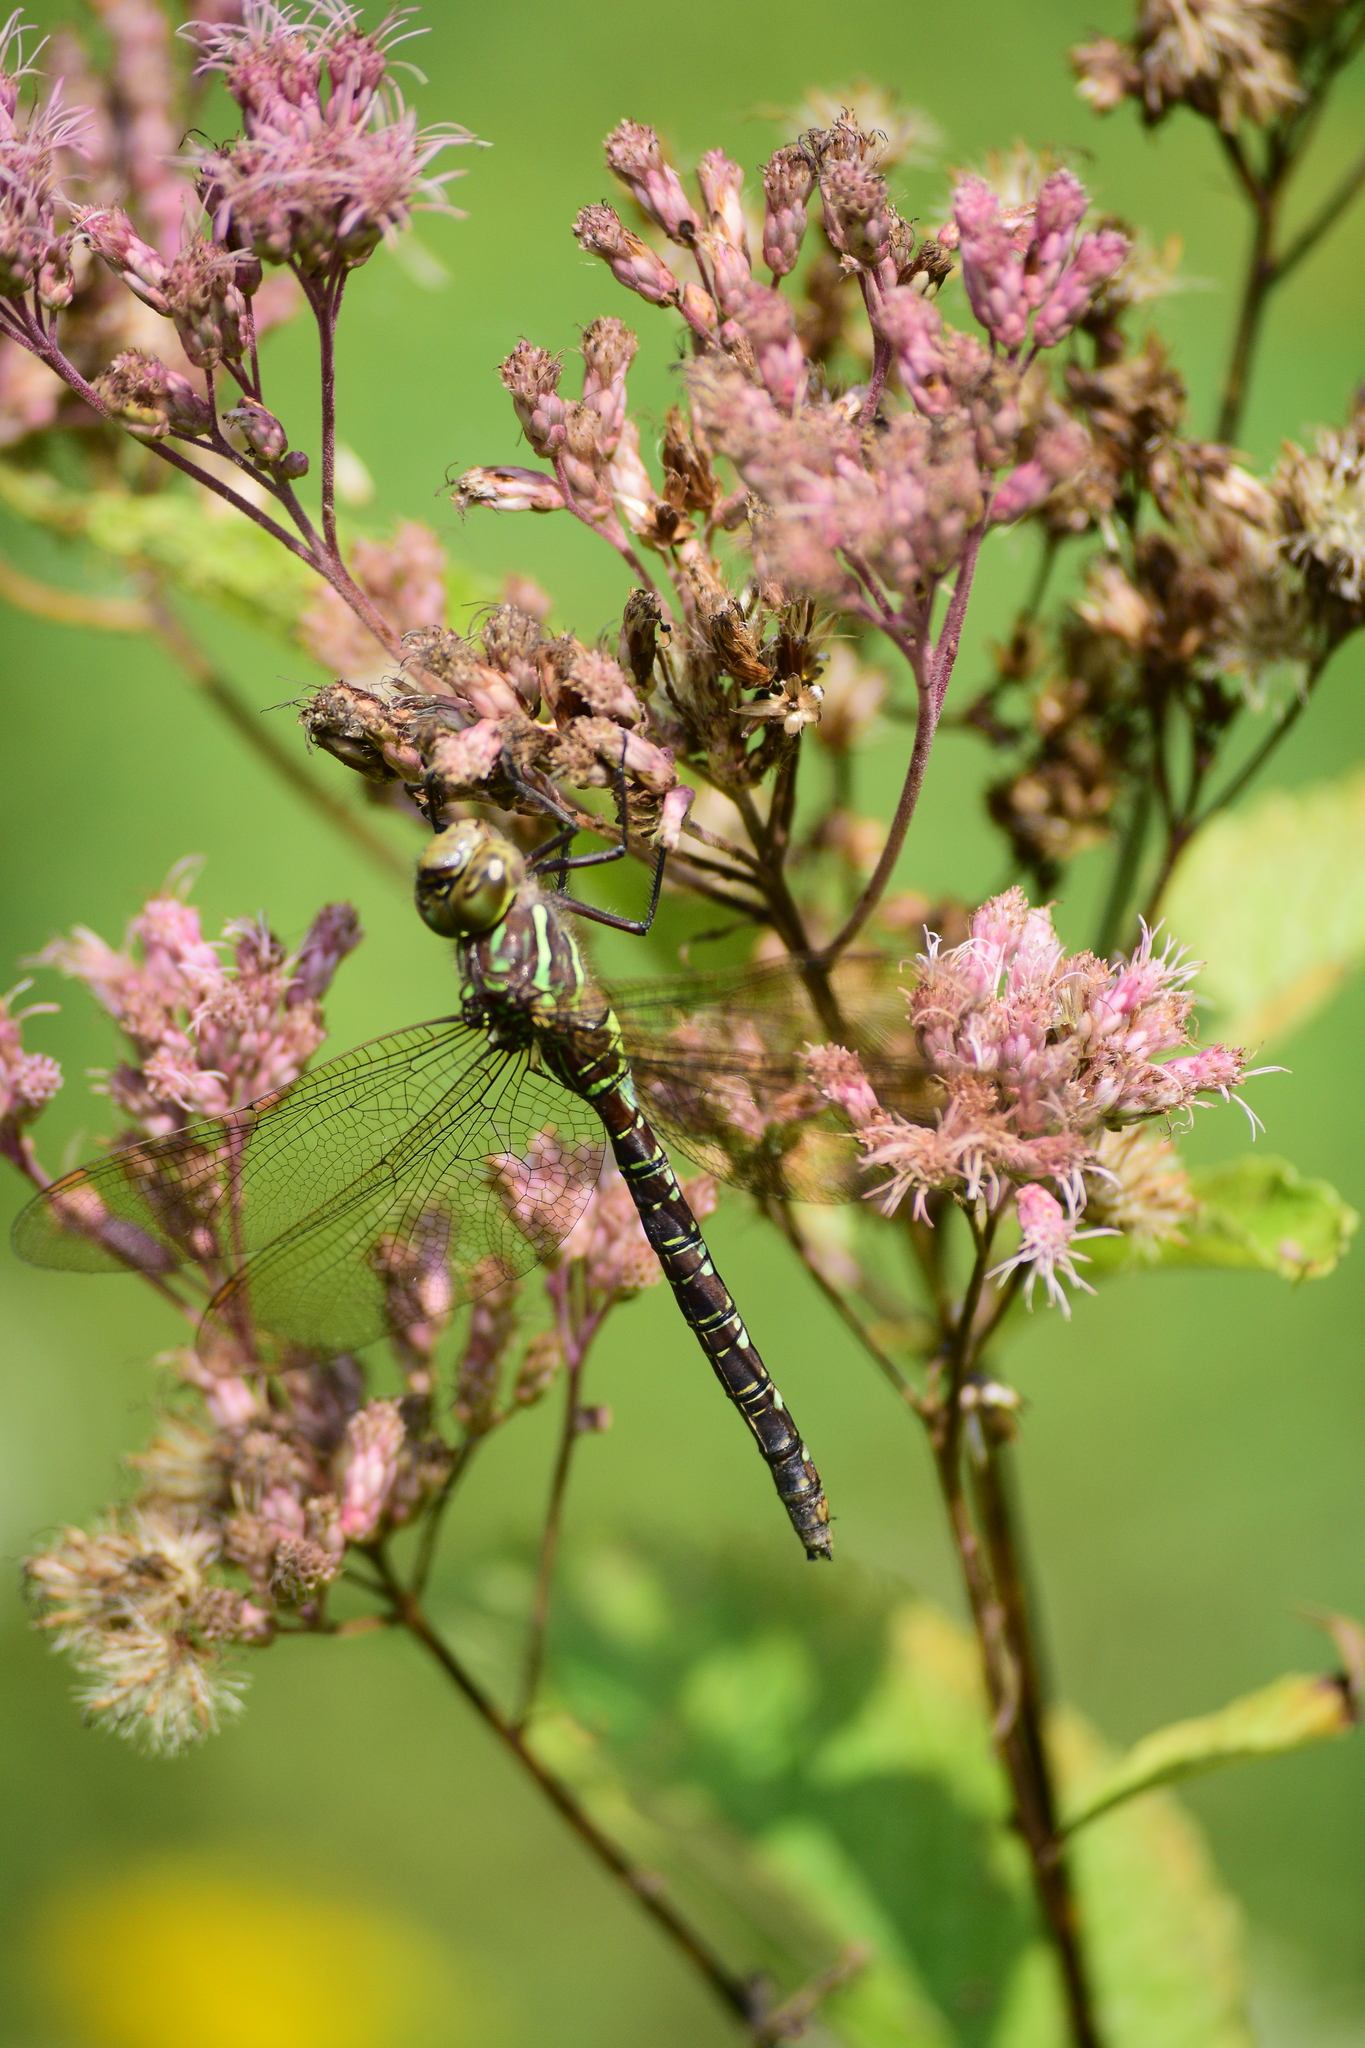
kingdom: Animalia
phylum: Arthropoda
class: Insecta
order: Odonata
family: Aeshnidae
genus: Aeshna
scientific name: Aeshna umbrosa
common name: Shadow darner
